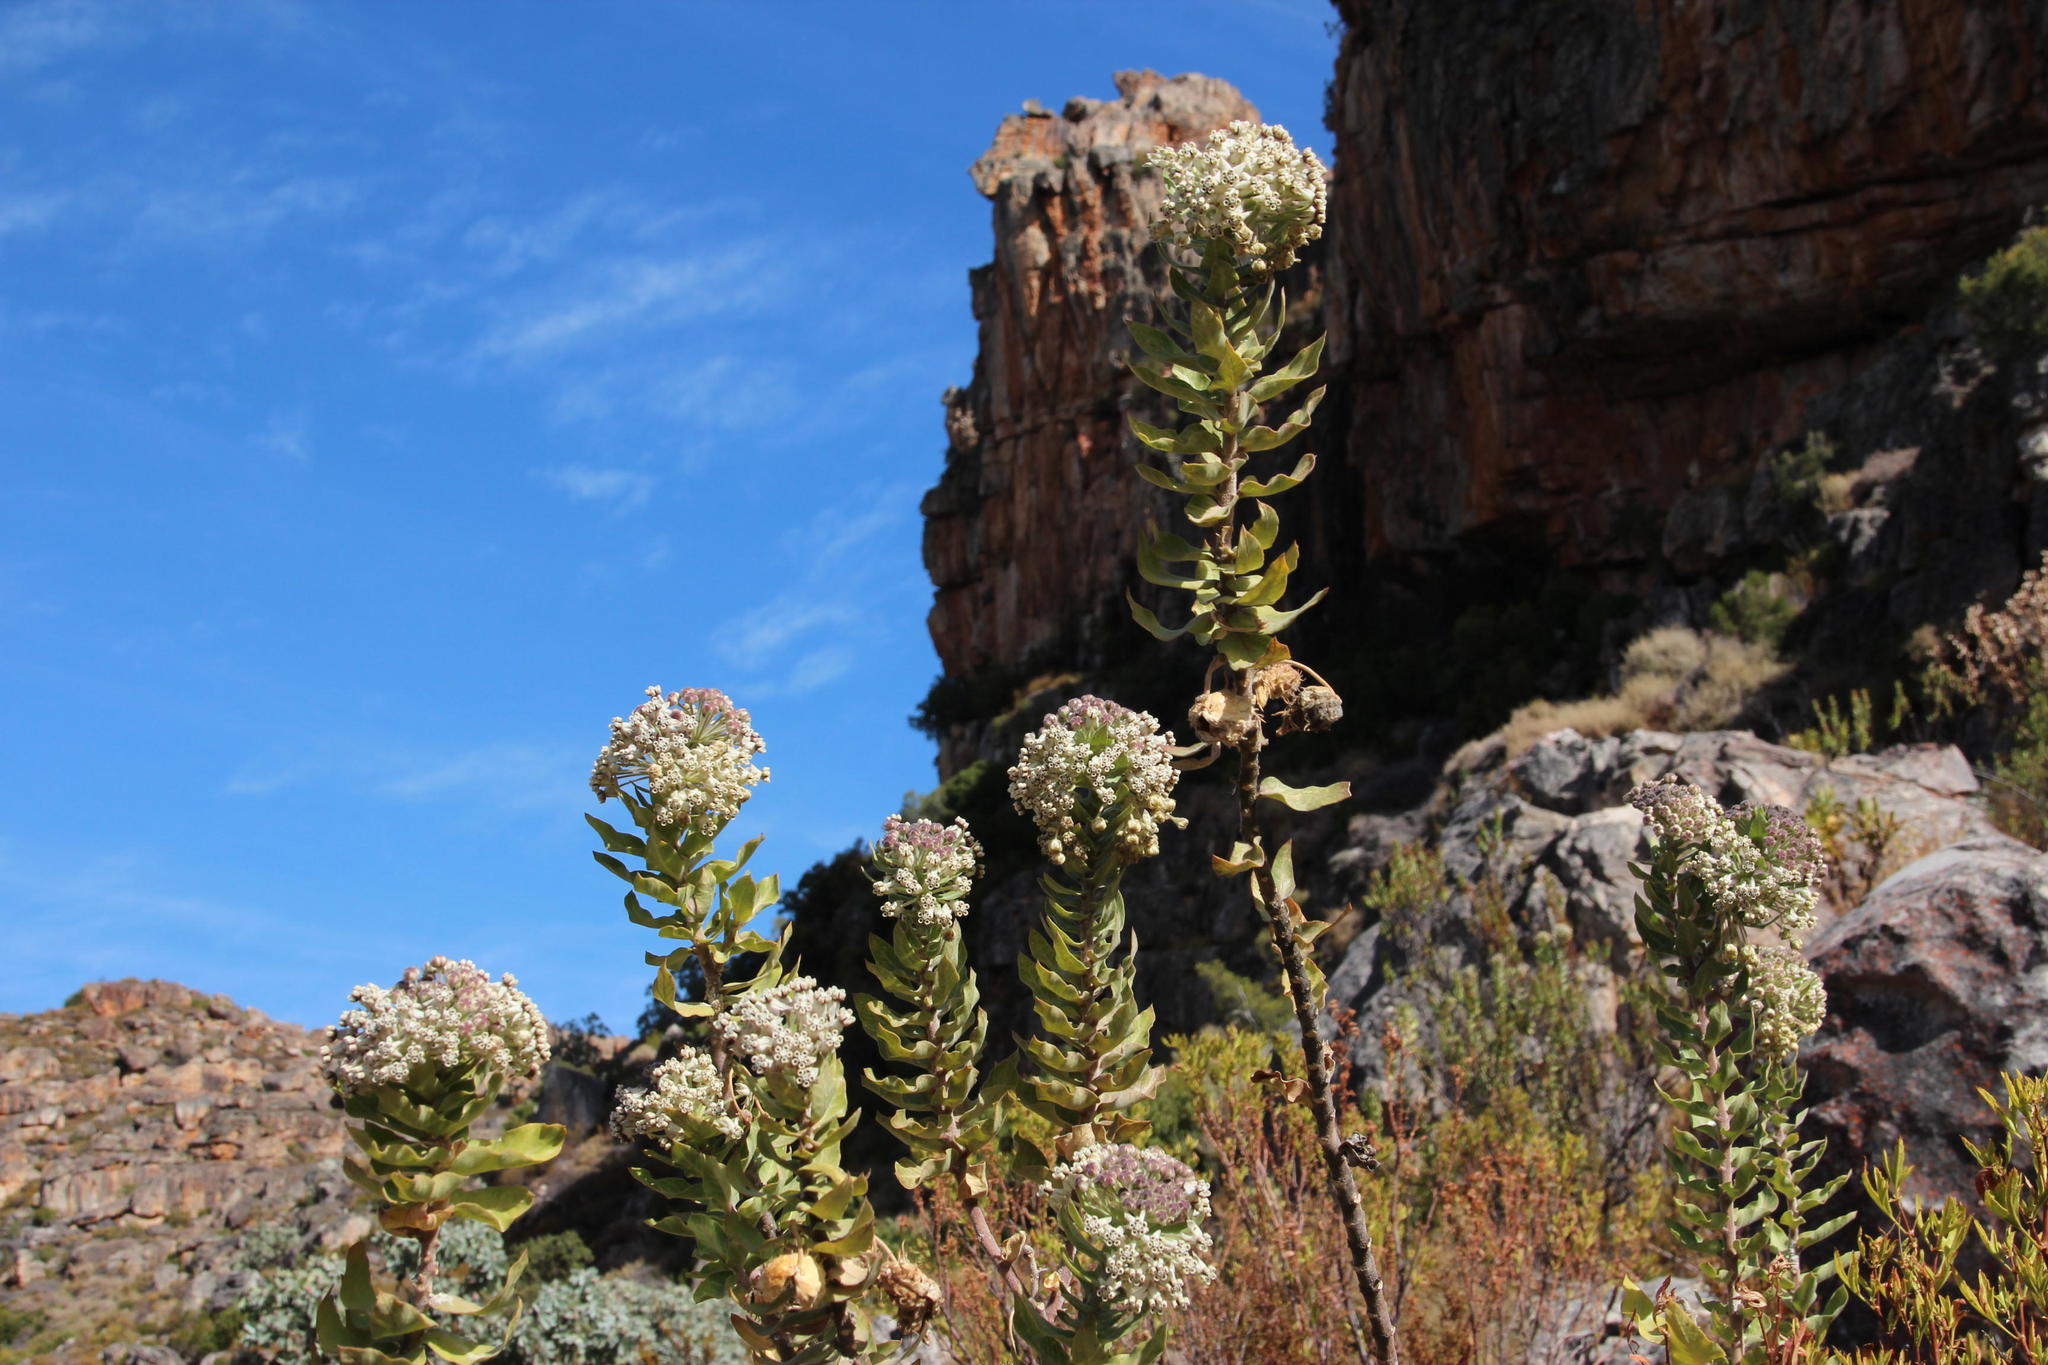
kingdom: Plantae
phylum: Tracheophyta
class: Magnoliopsida
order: Gentianales
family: Apocynaceae
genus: Gomphocarpus
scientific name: Gomphocarpus cancellatus
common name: Wild cotton
